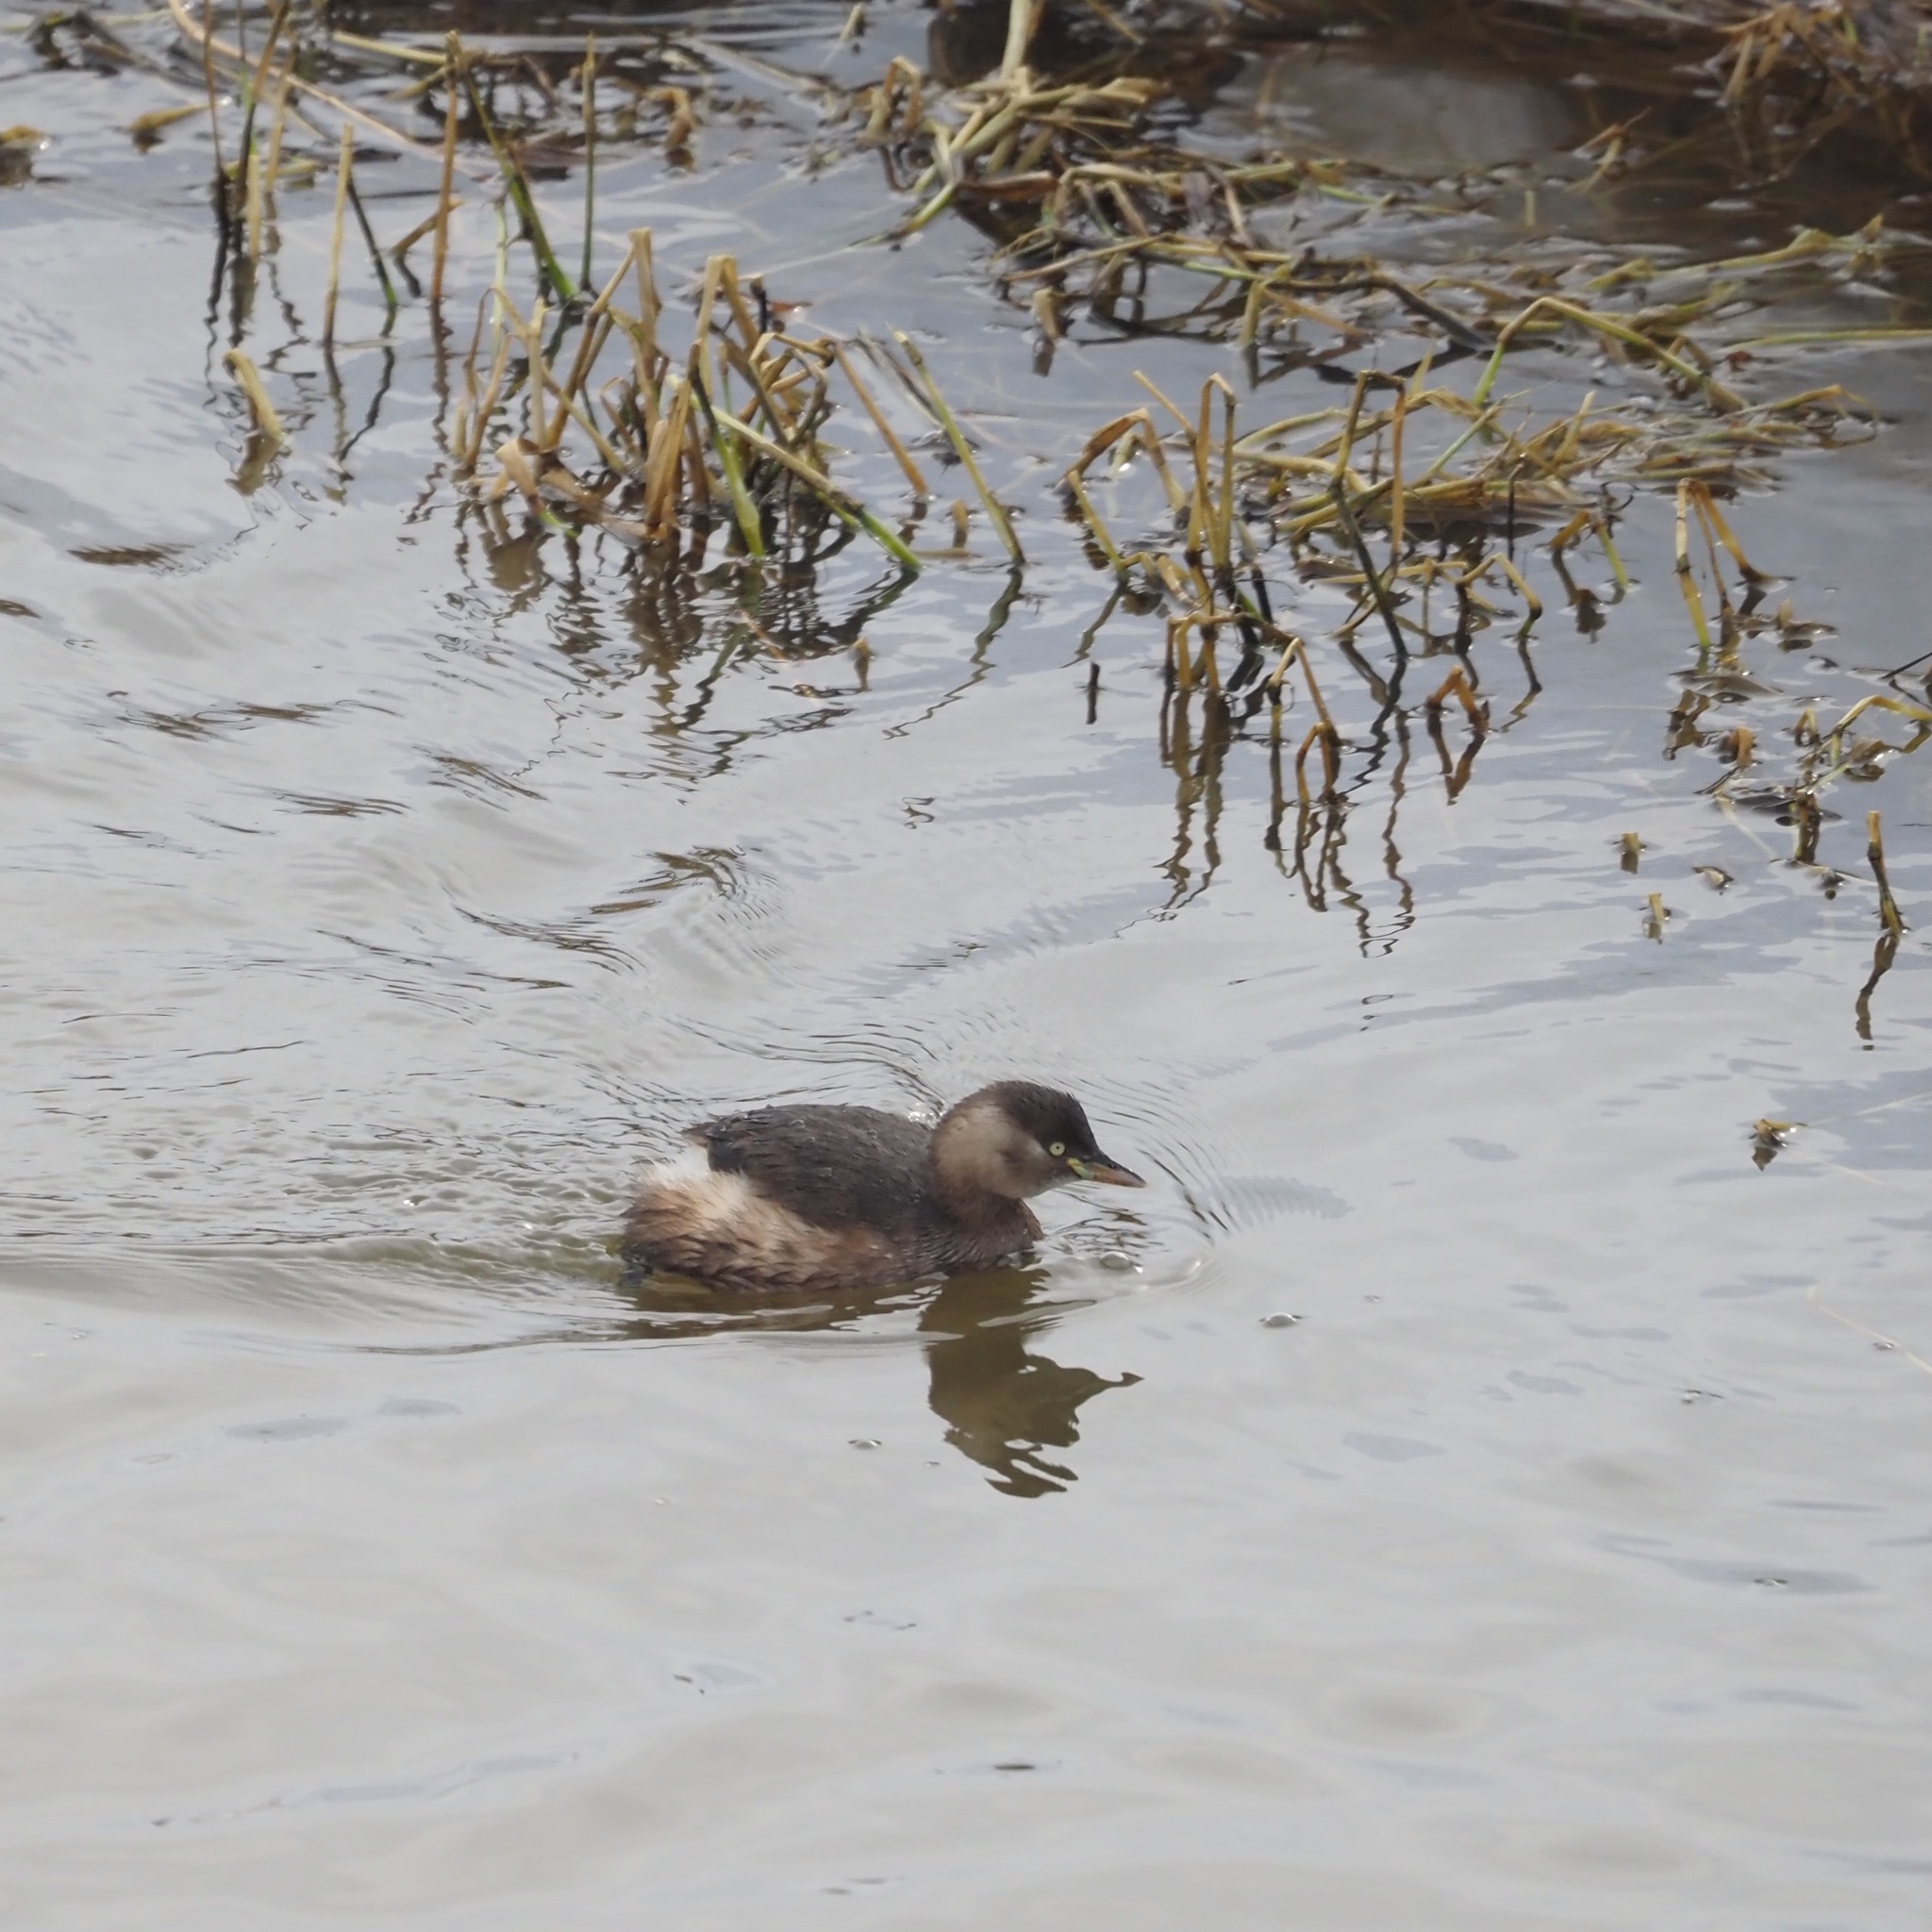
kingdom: Animalia
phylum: Chordata
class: Aves
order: Podicipediformes
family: Podicipedidae
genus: Tachybaptus
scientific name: Tachybaptus ruficollis
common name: Little grebe
